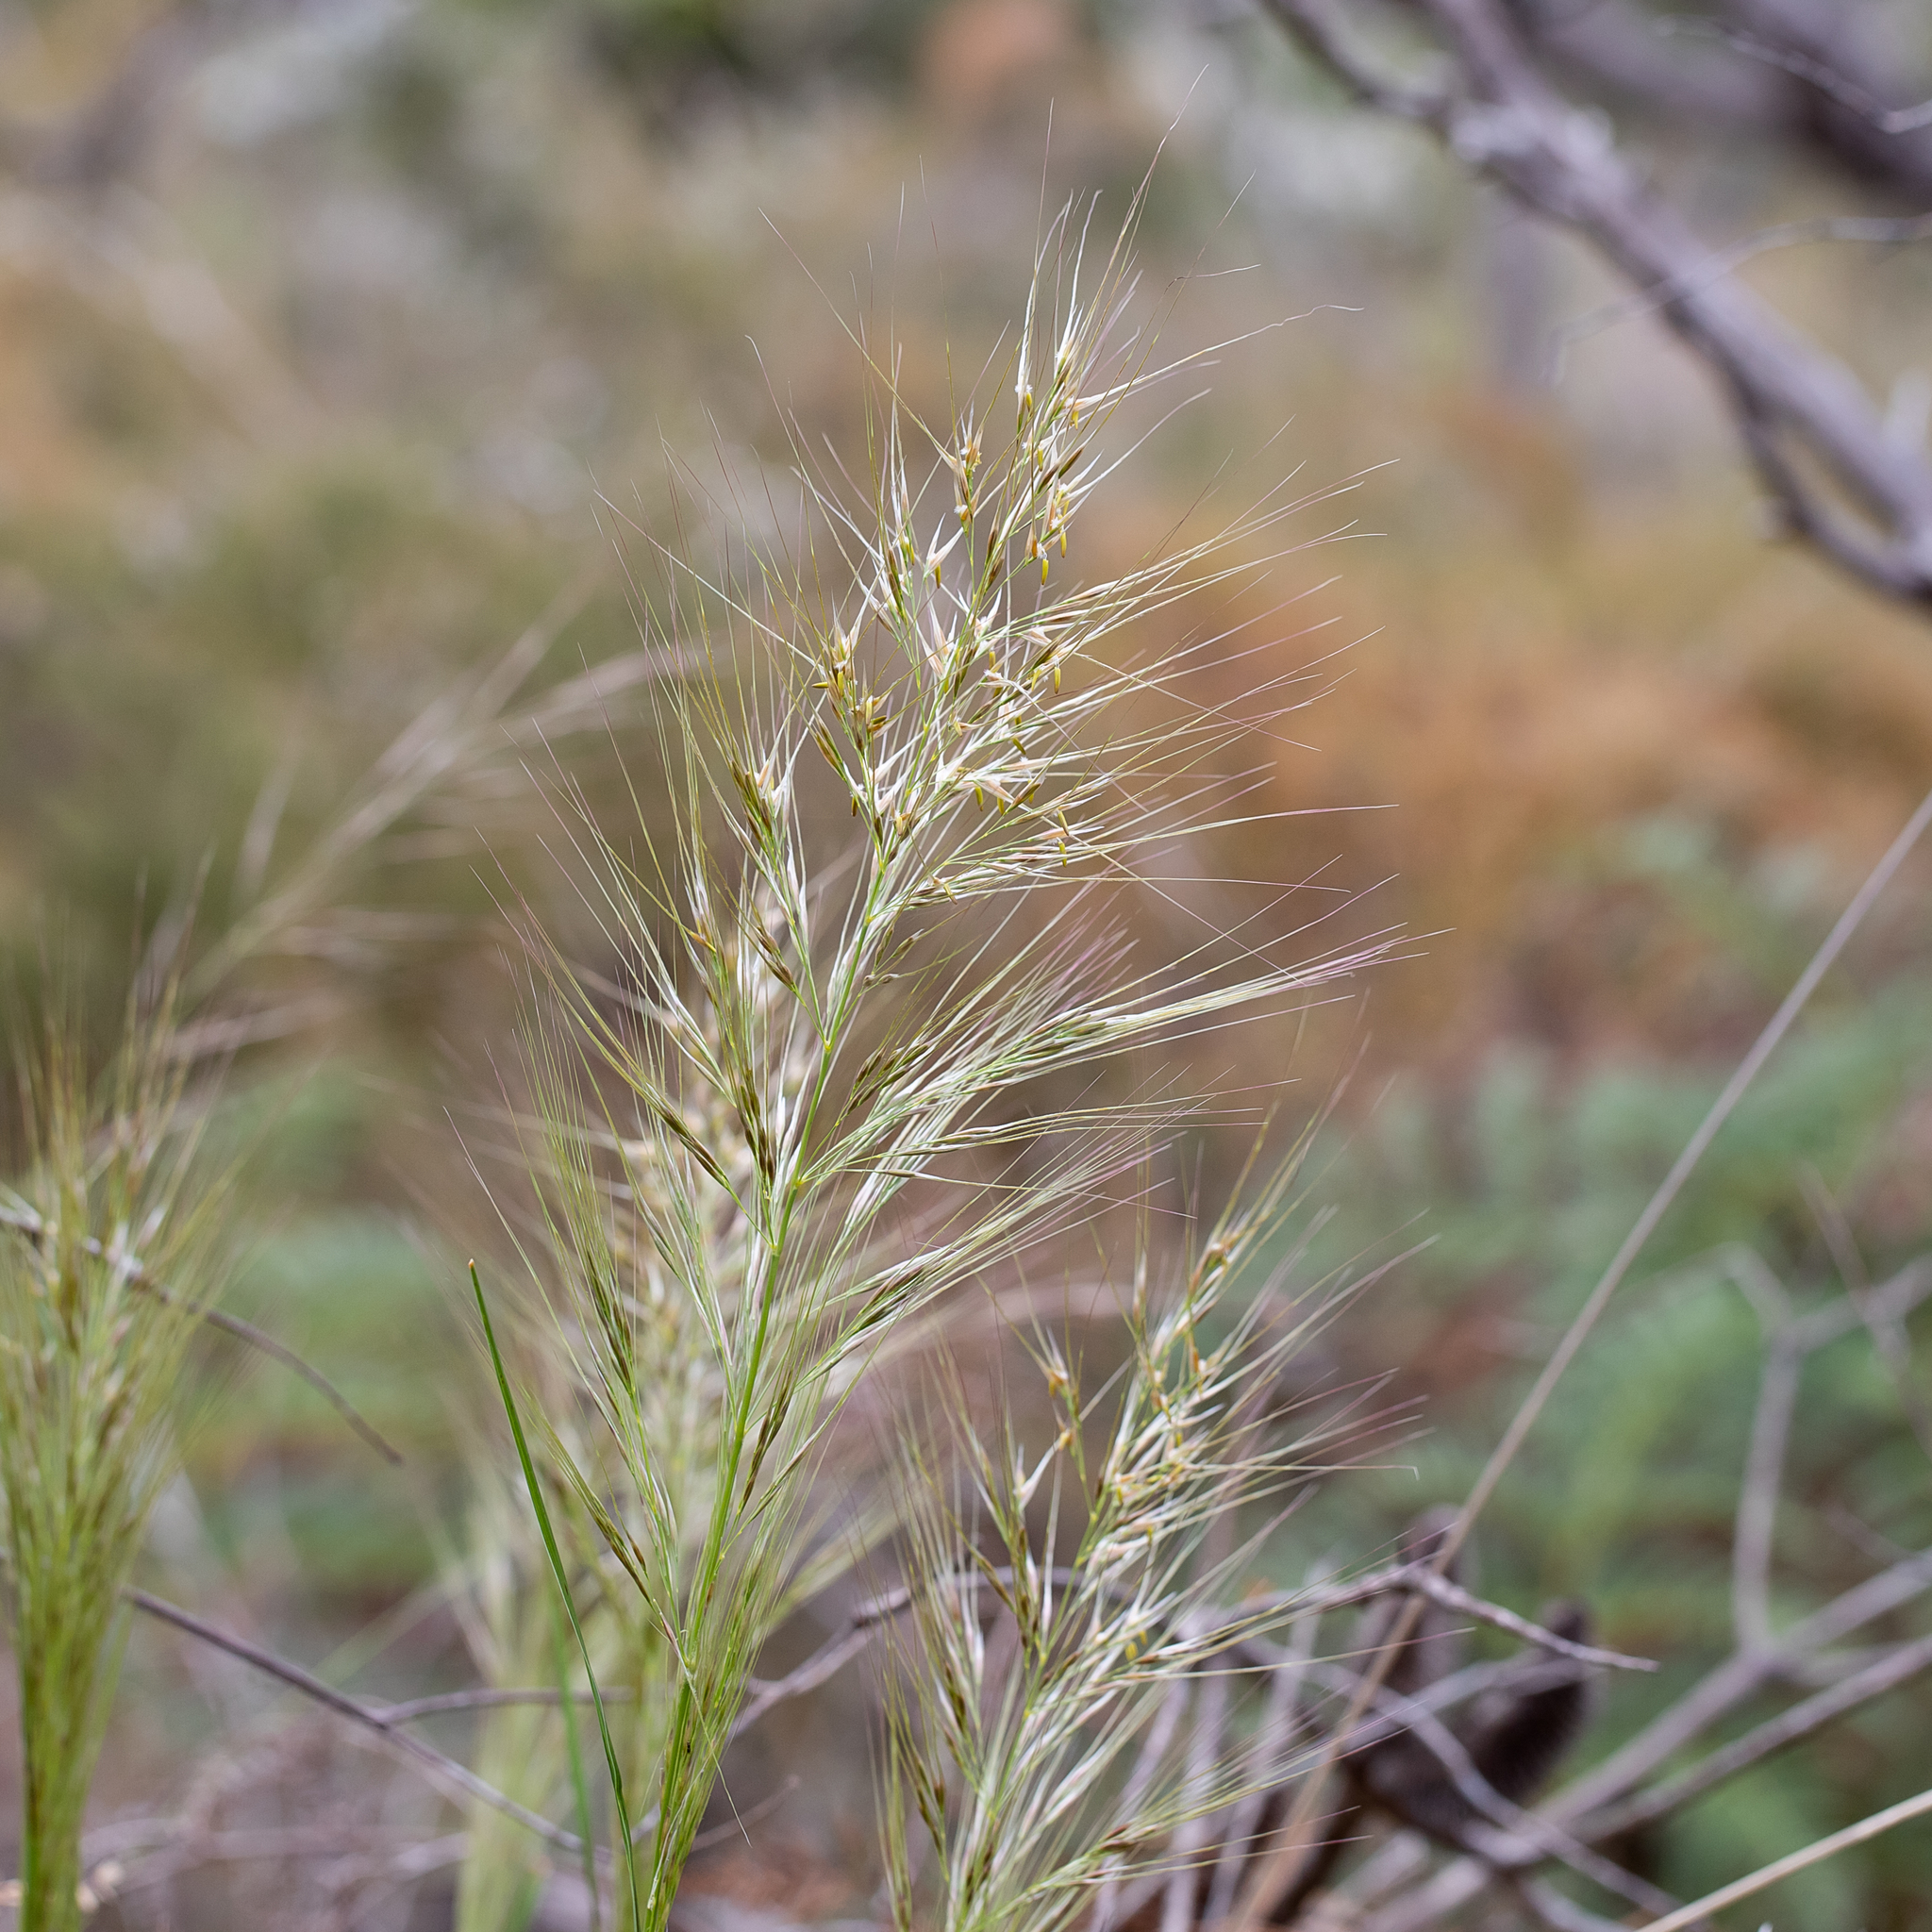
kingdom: Plantae
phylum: Tracheophyta
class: Liliopsida
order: Poales
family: Poaceae
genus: Austrostipa
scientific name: Austrostipa mollis
